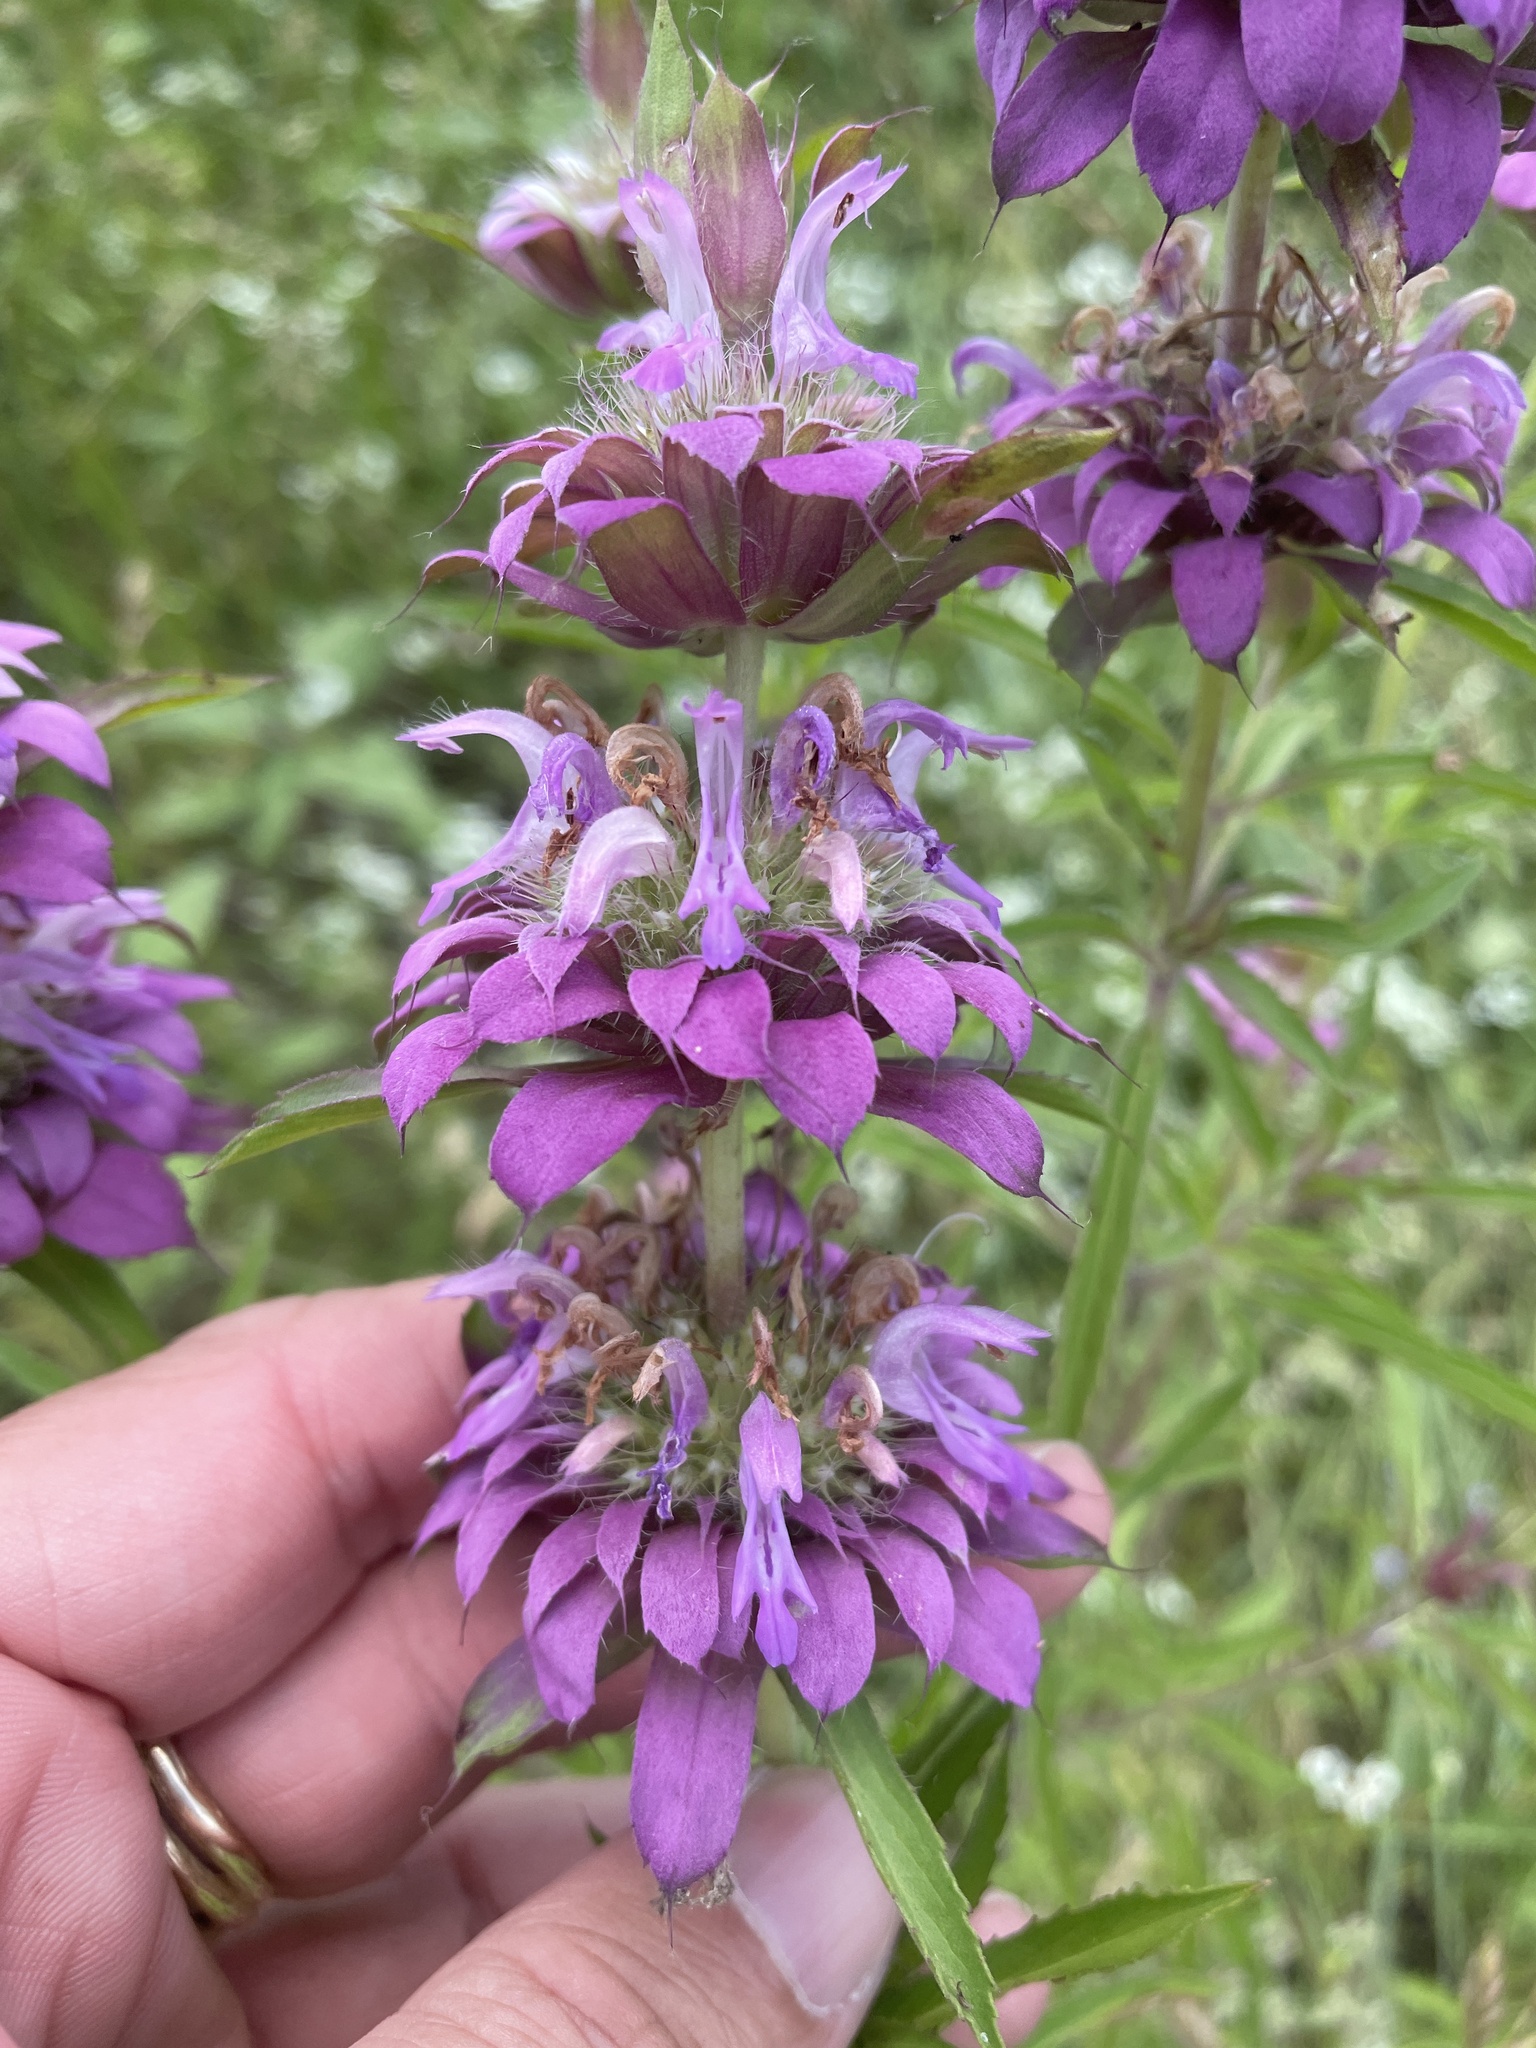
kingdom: Plantae
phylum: Tracheophyta
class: Magnoliopsida
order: Lamiales
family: Lamiaceae
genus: Monarda
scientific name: Monarda citriodora
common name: Lemon beebalm
